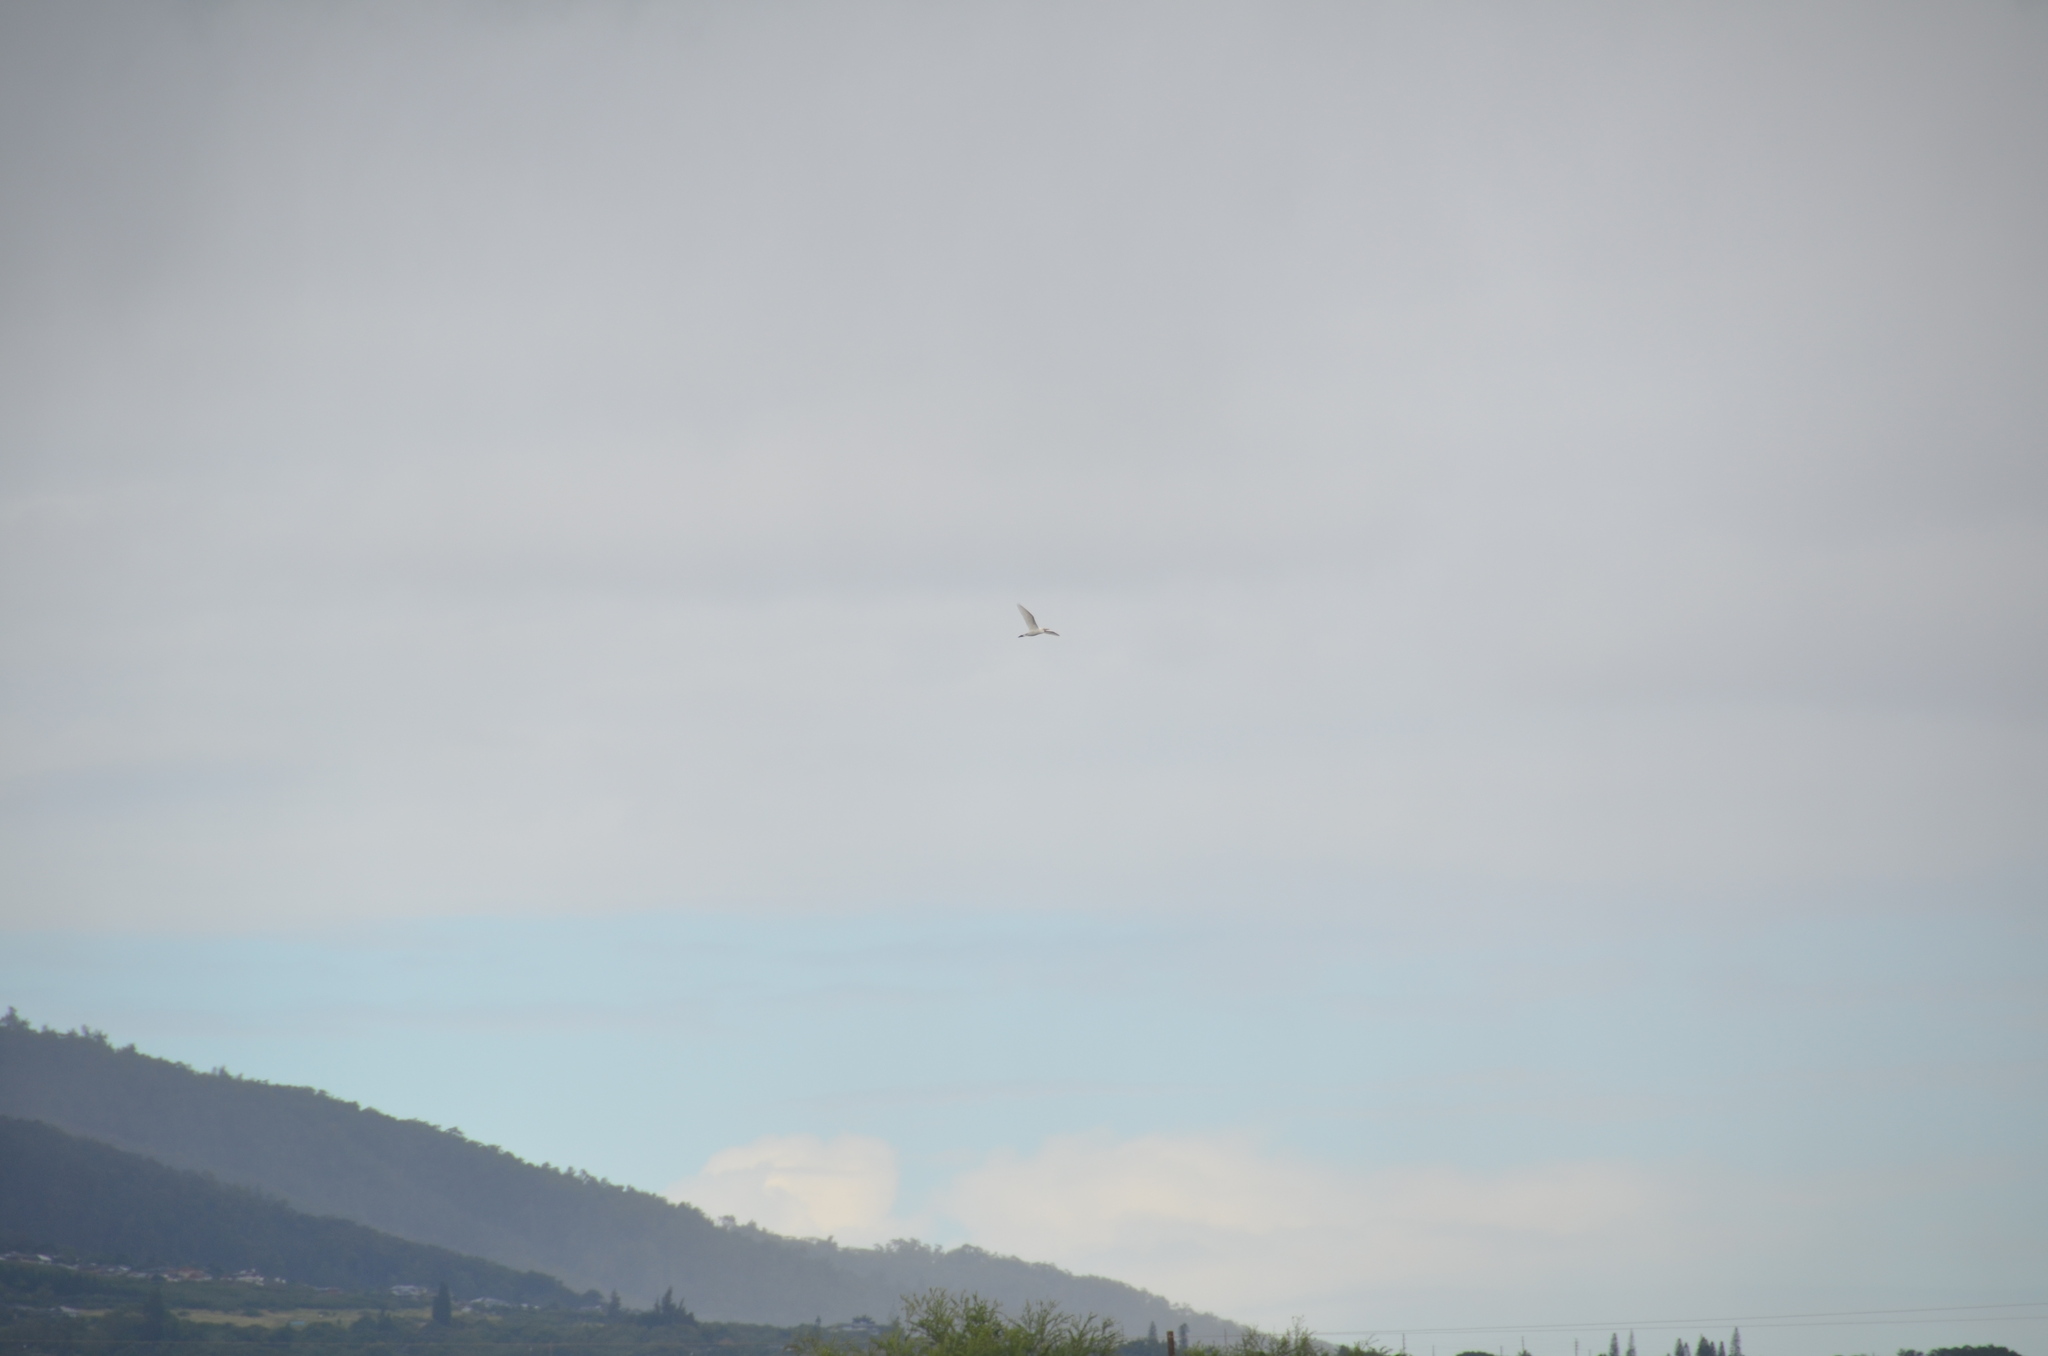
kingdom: Animalia
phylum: Chordata
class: Aves
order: Pelecaniformes
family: Ardeidae
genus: Bubulcus
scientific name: Bubulcus ibis
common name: Cattle egret
